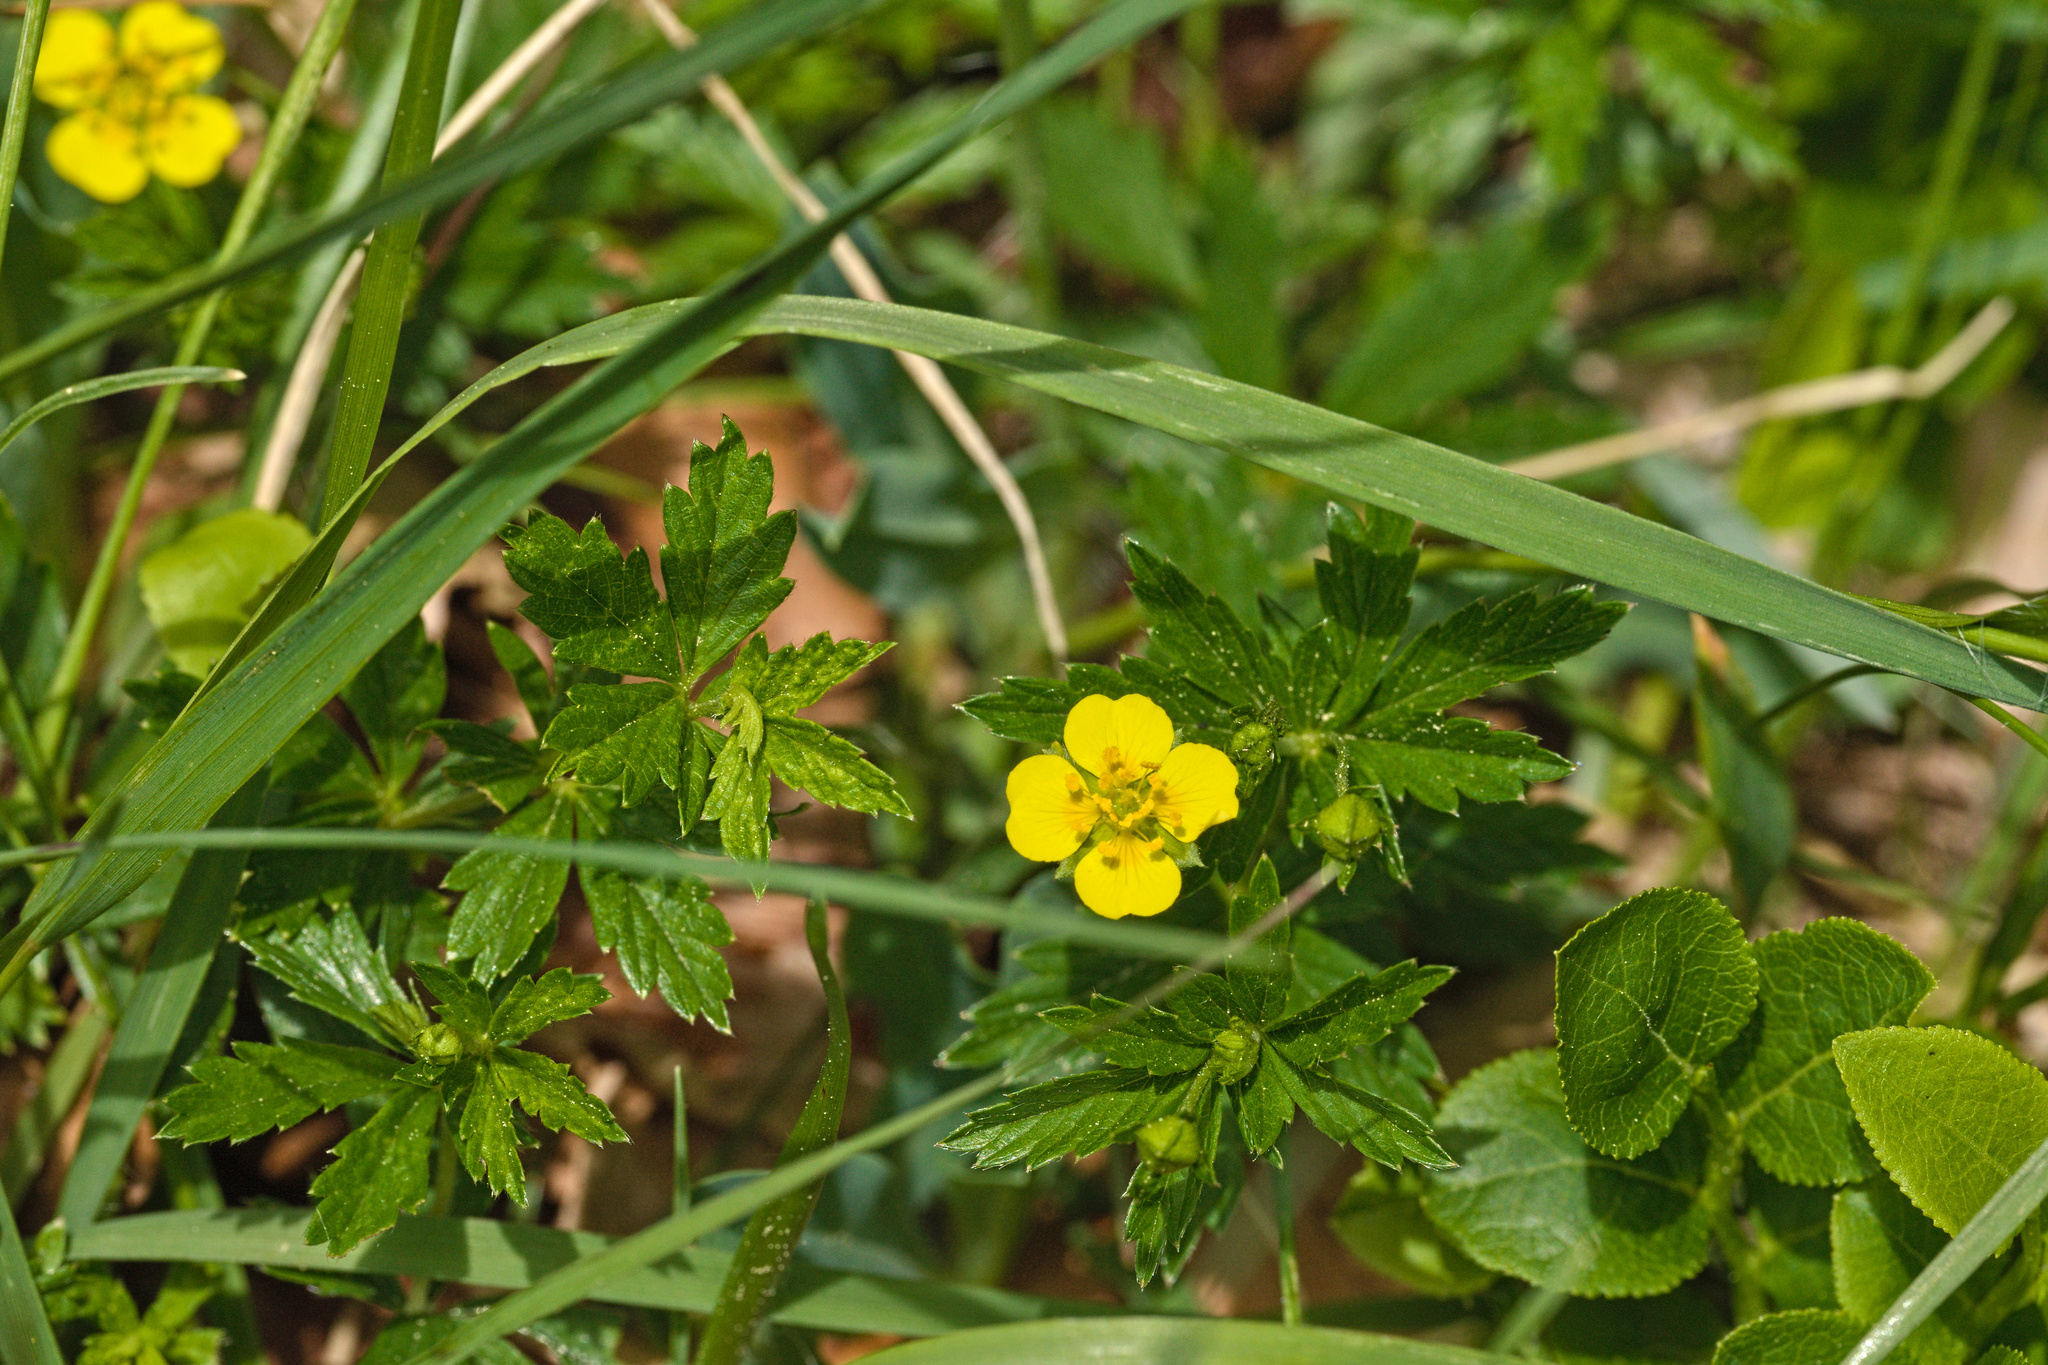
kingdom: Plantae
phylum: Tracheophyta
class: Magnoliopsida
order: Rosales
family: Rosaceae
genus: Potentilla
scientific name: Potentilla erecta
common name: Tormentil
